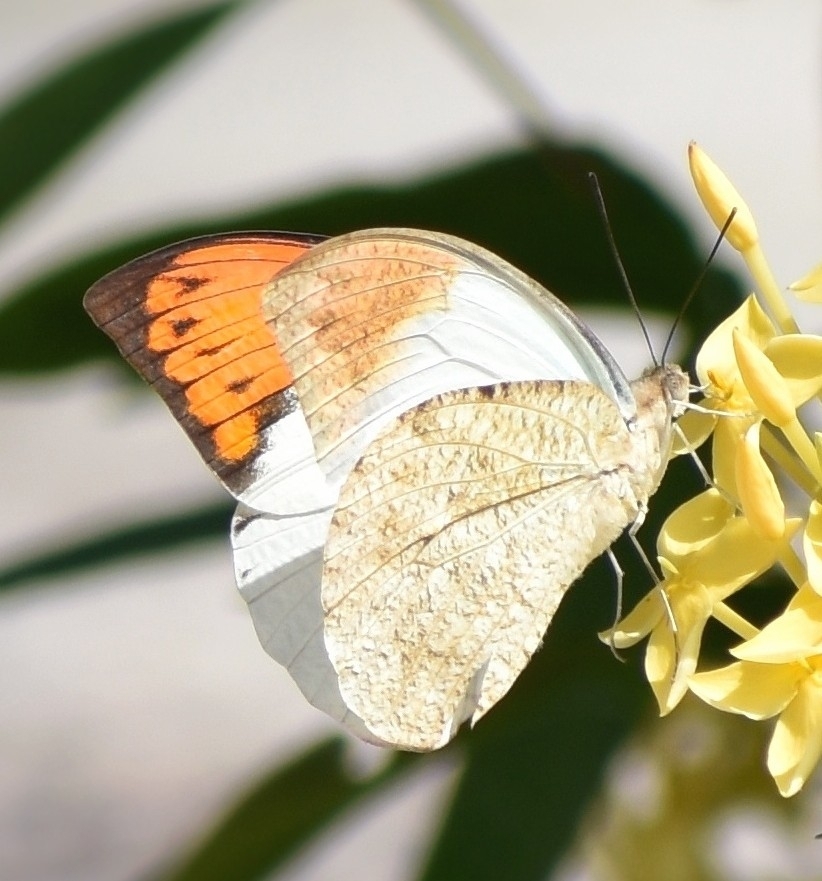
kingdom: Animalia
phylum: Arthropoda
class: Insecta
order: Lepidoptera
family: Pieridae
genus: Hebomoia
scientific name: Hebomoia glaucippe
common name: Great orange tip
